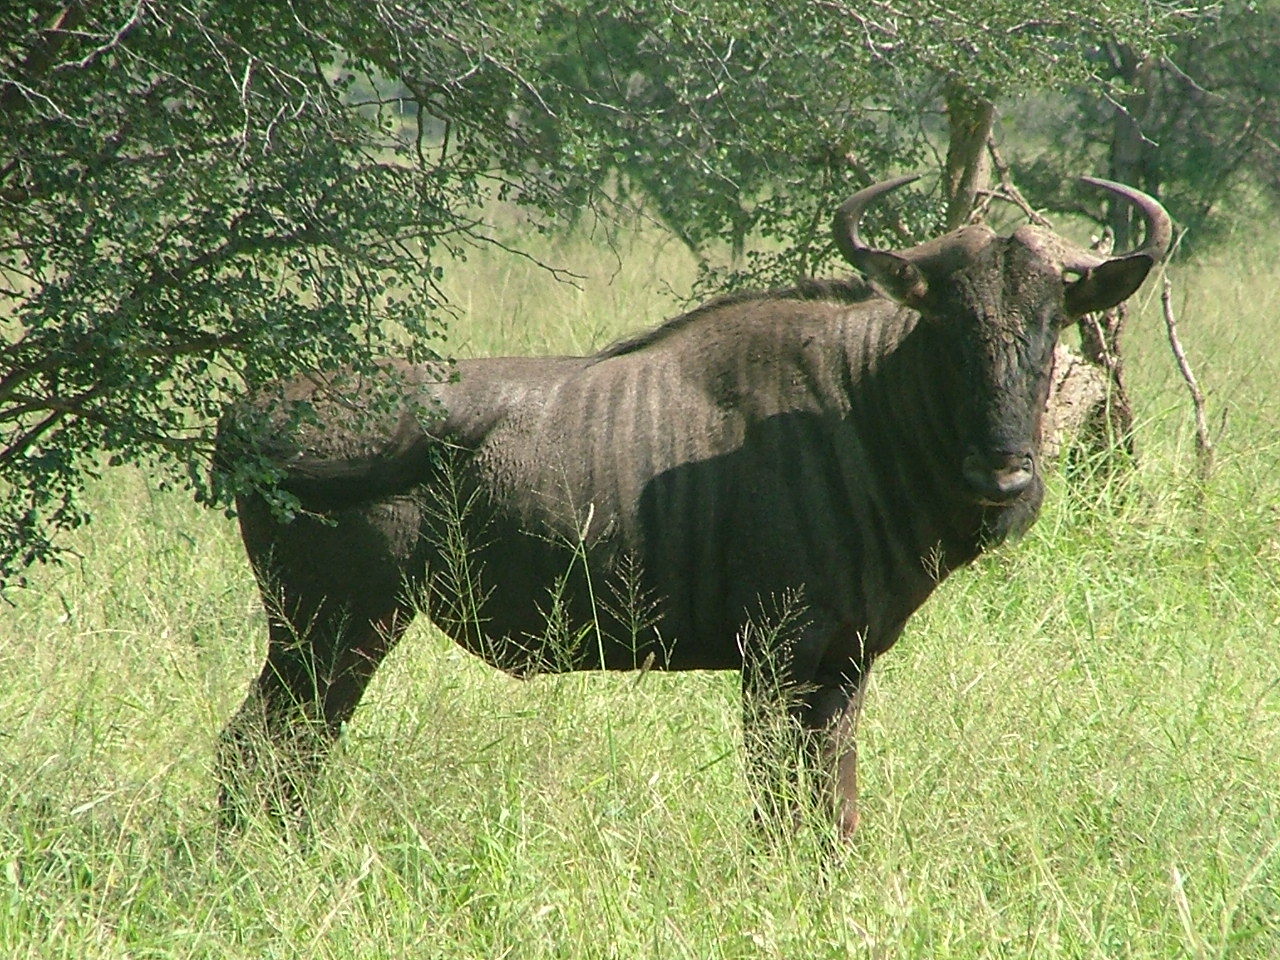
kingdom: Animalia
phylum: Chordata
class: Mammalia
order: Artiodactyla
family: Bovidae
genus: Connochaetes
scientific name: Connochaetes taurinus
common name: Blue wildebeest
